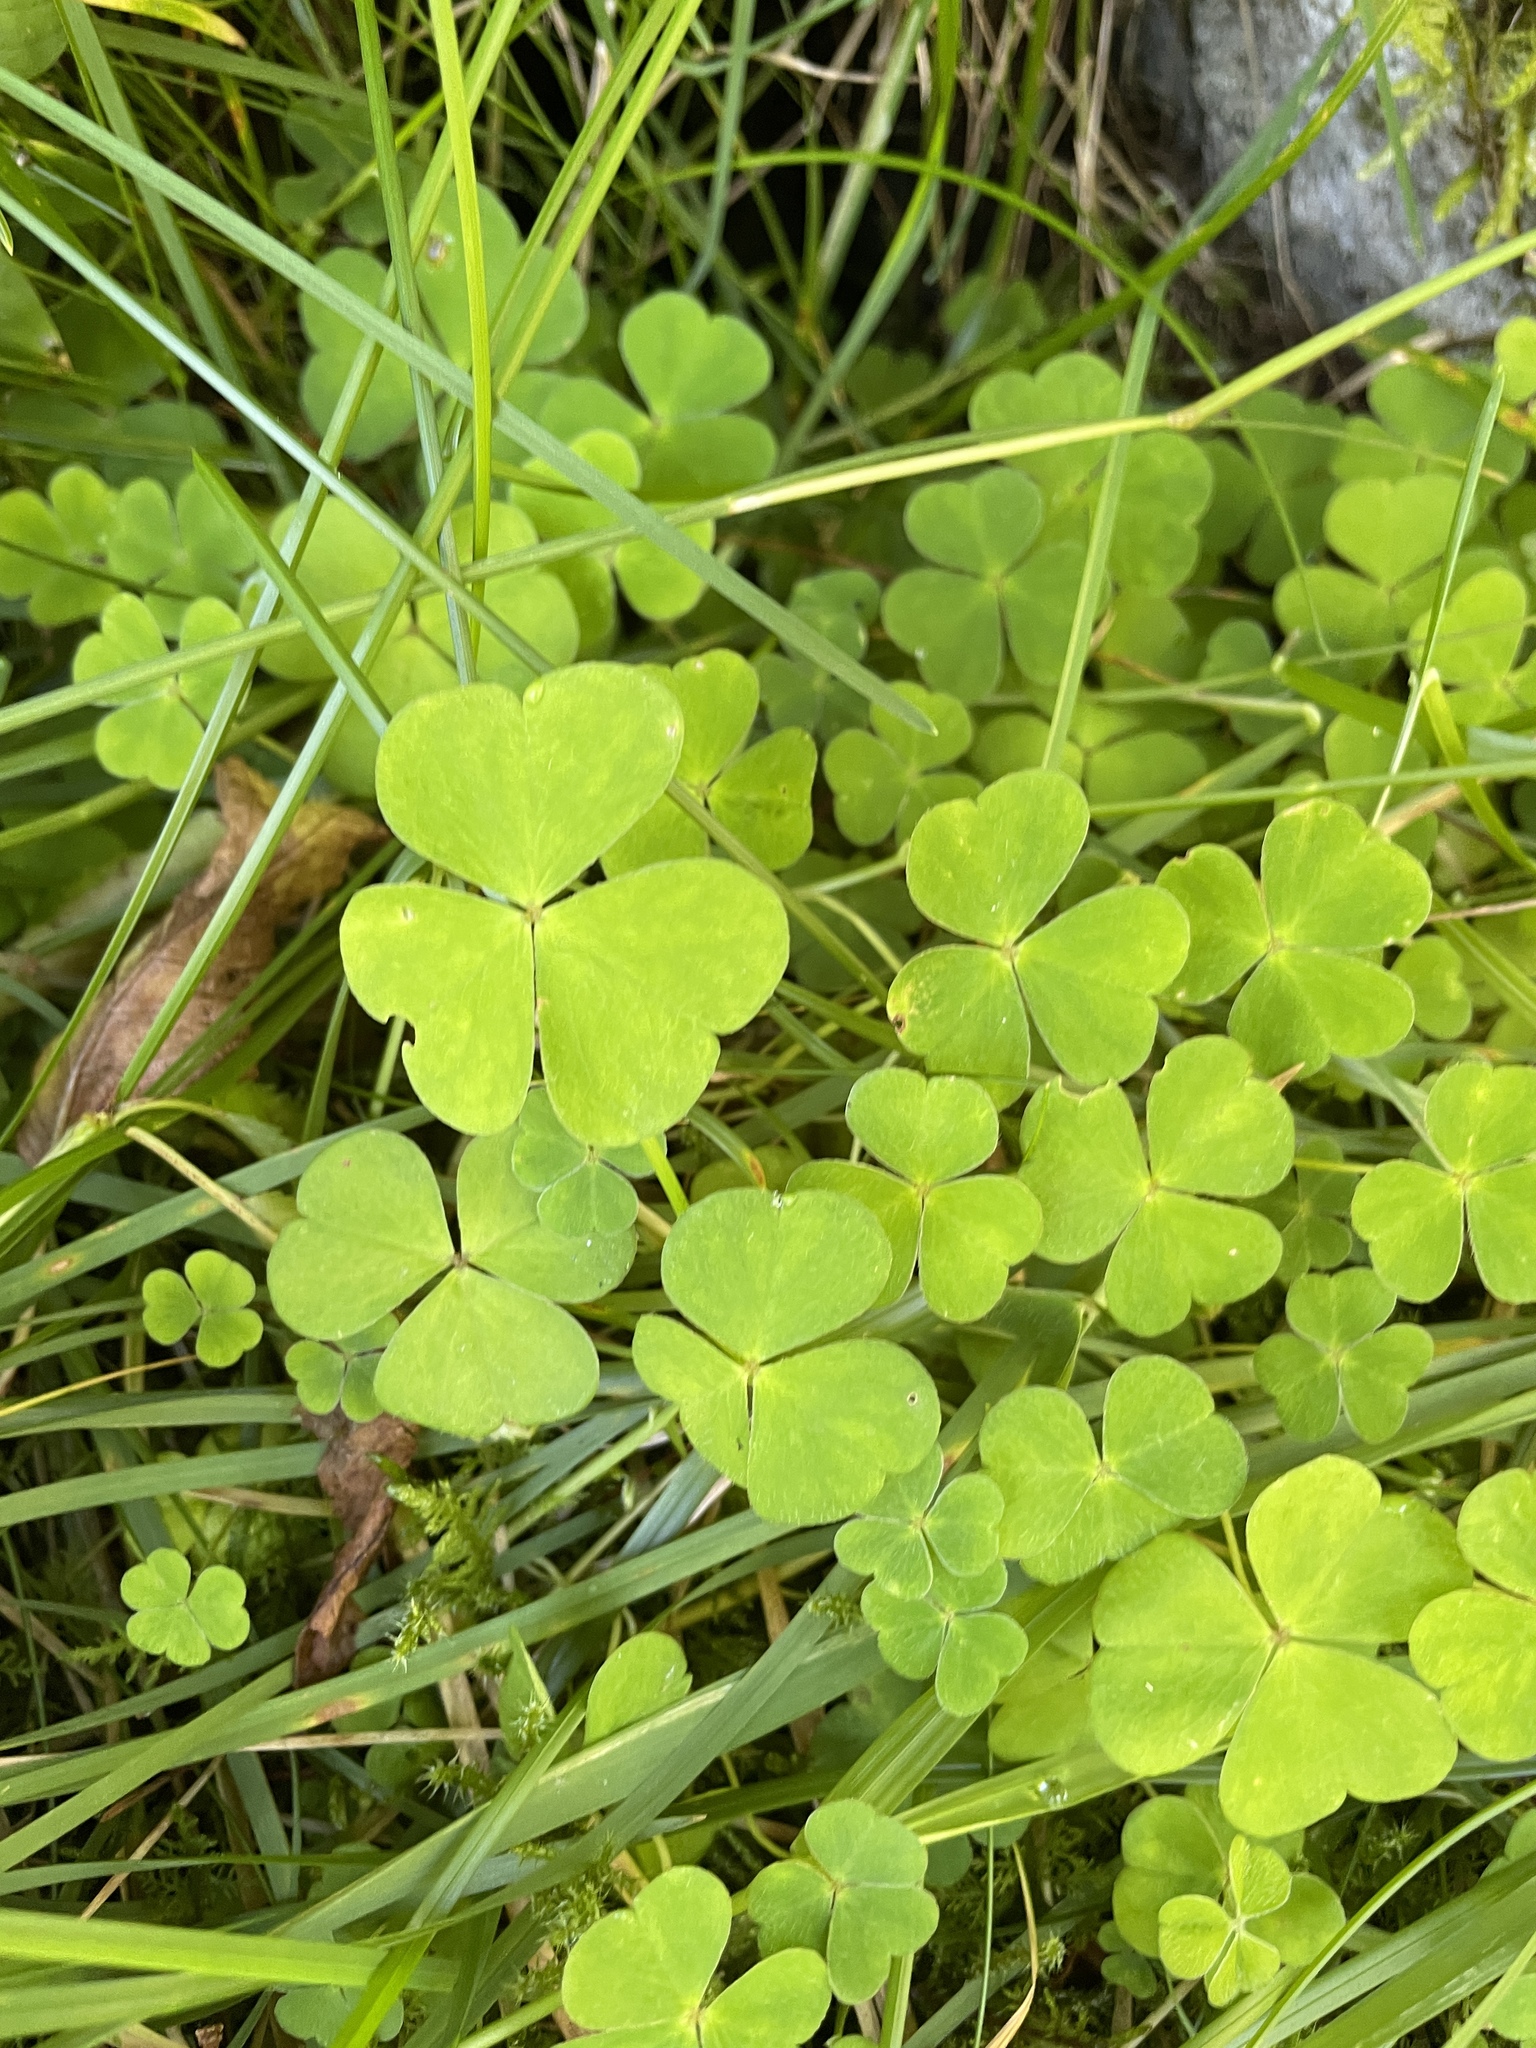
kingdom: Plantae
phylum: Tracheophyta
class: Magnoliopsida
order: Oxalidales
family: Oxalidaceae
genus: Oxalis
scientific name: Oxalis acetosella
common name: Wood-sorrel
